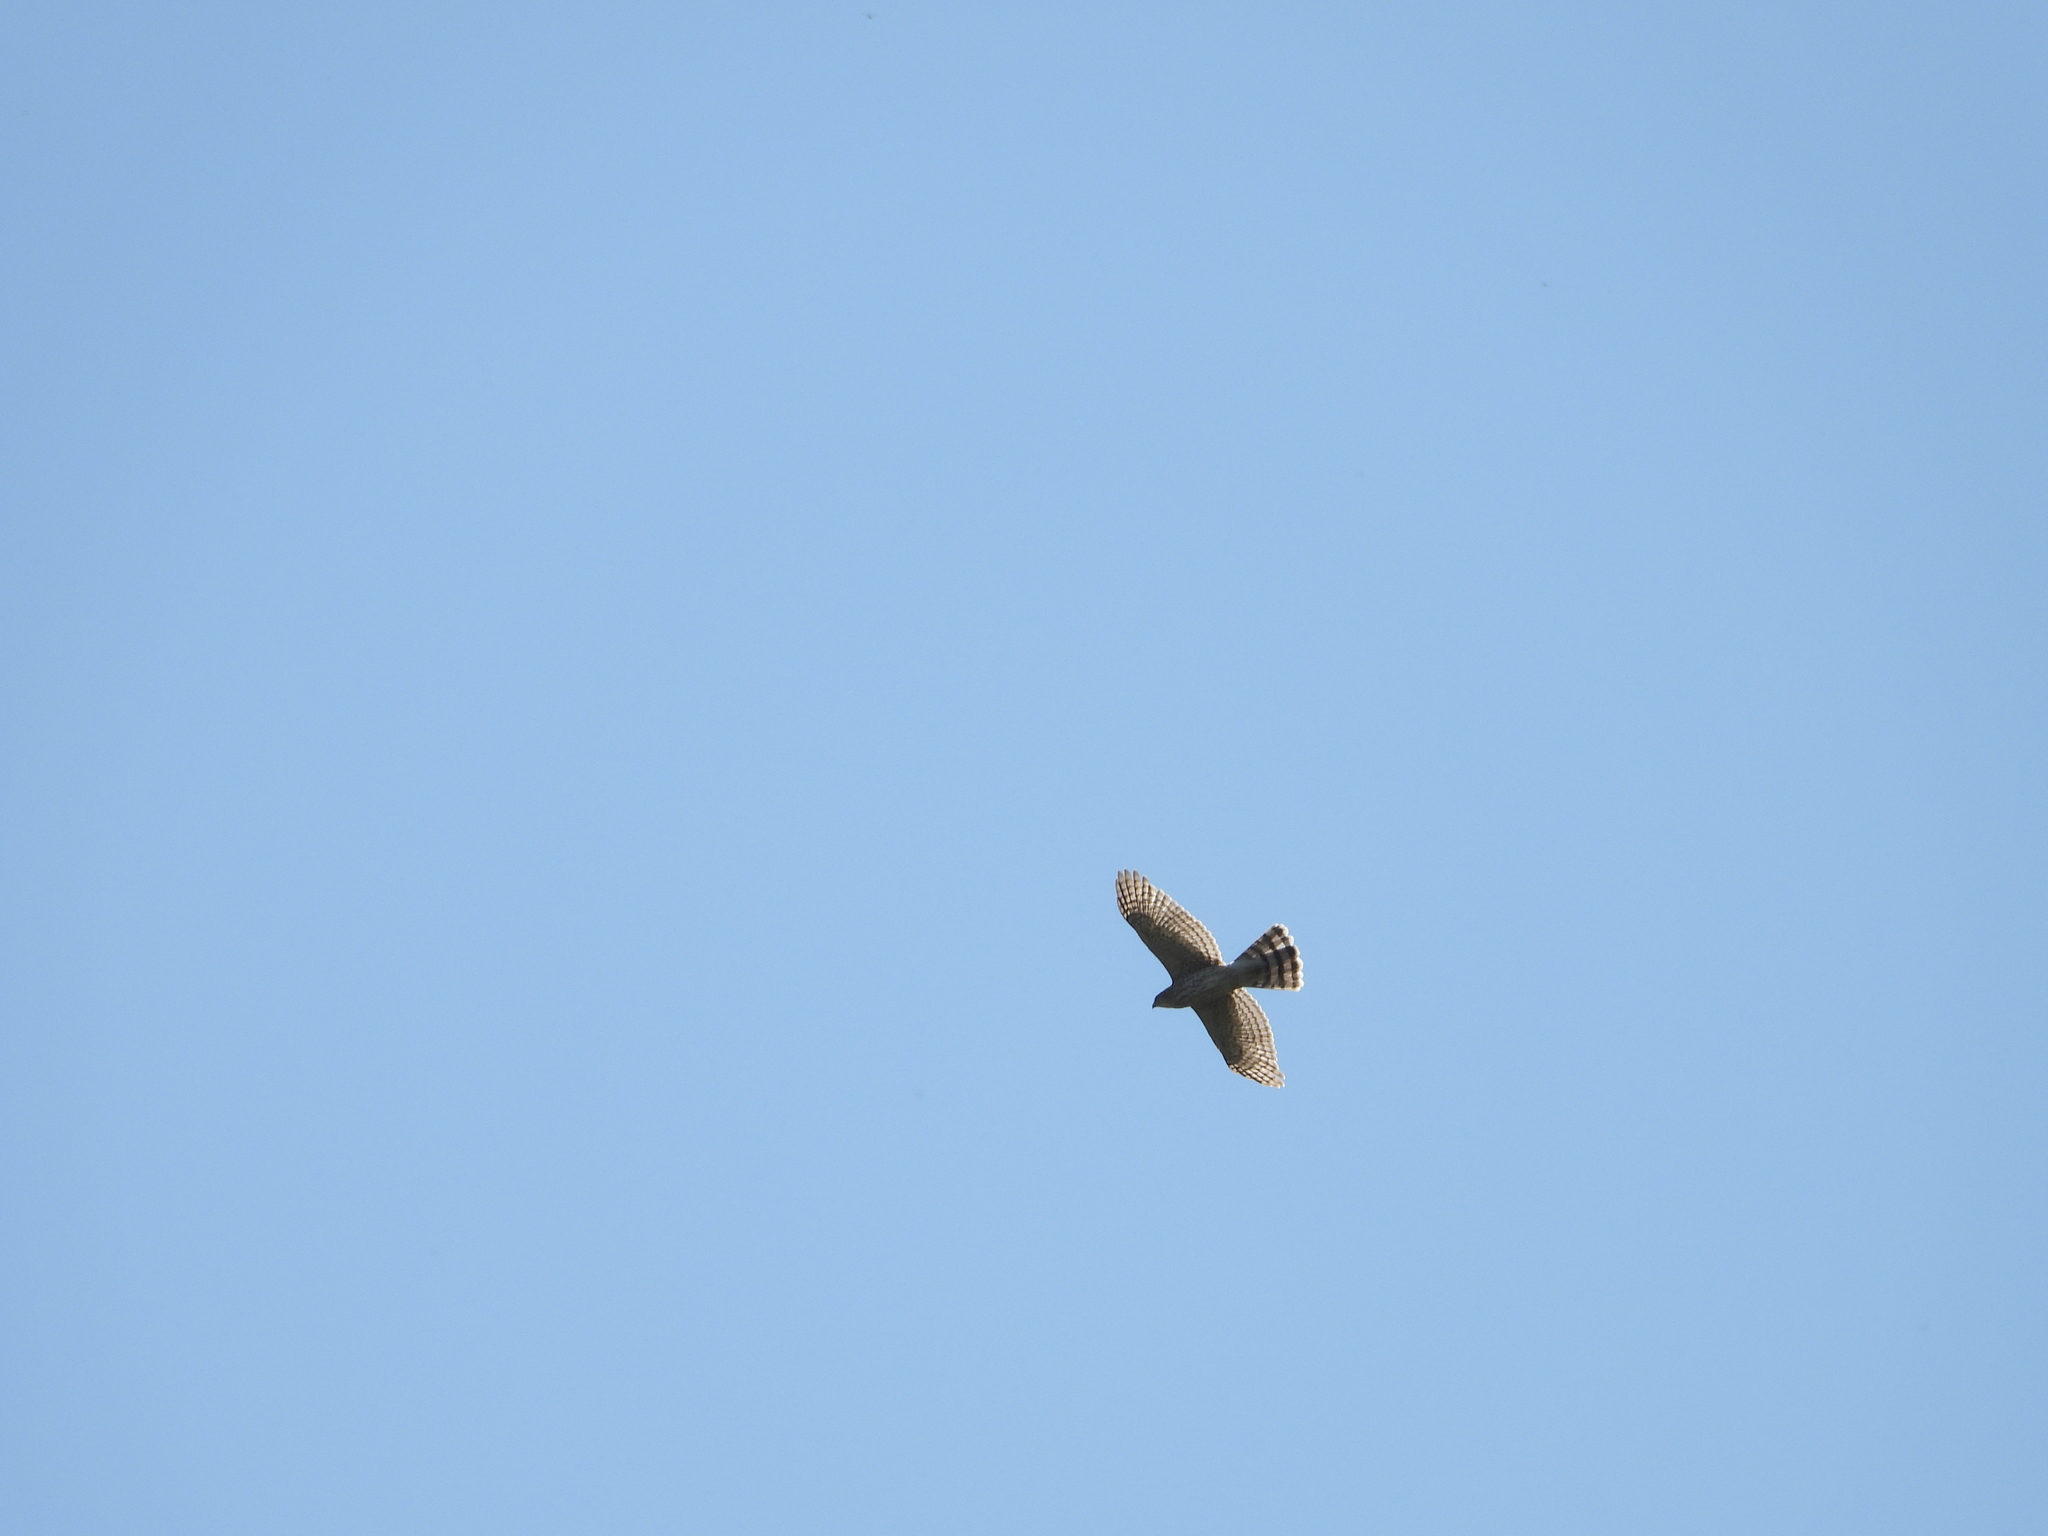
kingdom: Animalia
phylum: Chordata
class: Aves
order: Accipitriformes
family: Accipitridae
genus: Accipiter
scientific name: Accipiter cooperii
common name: Cooper's hawk
